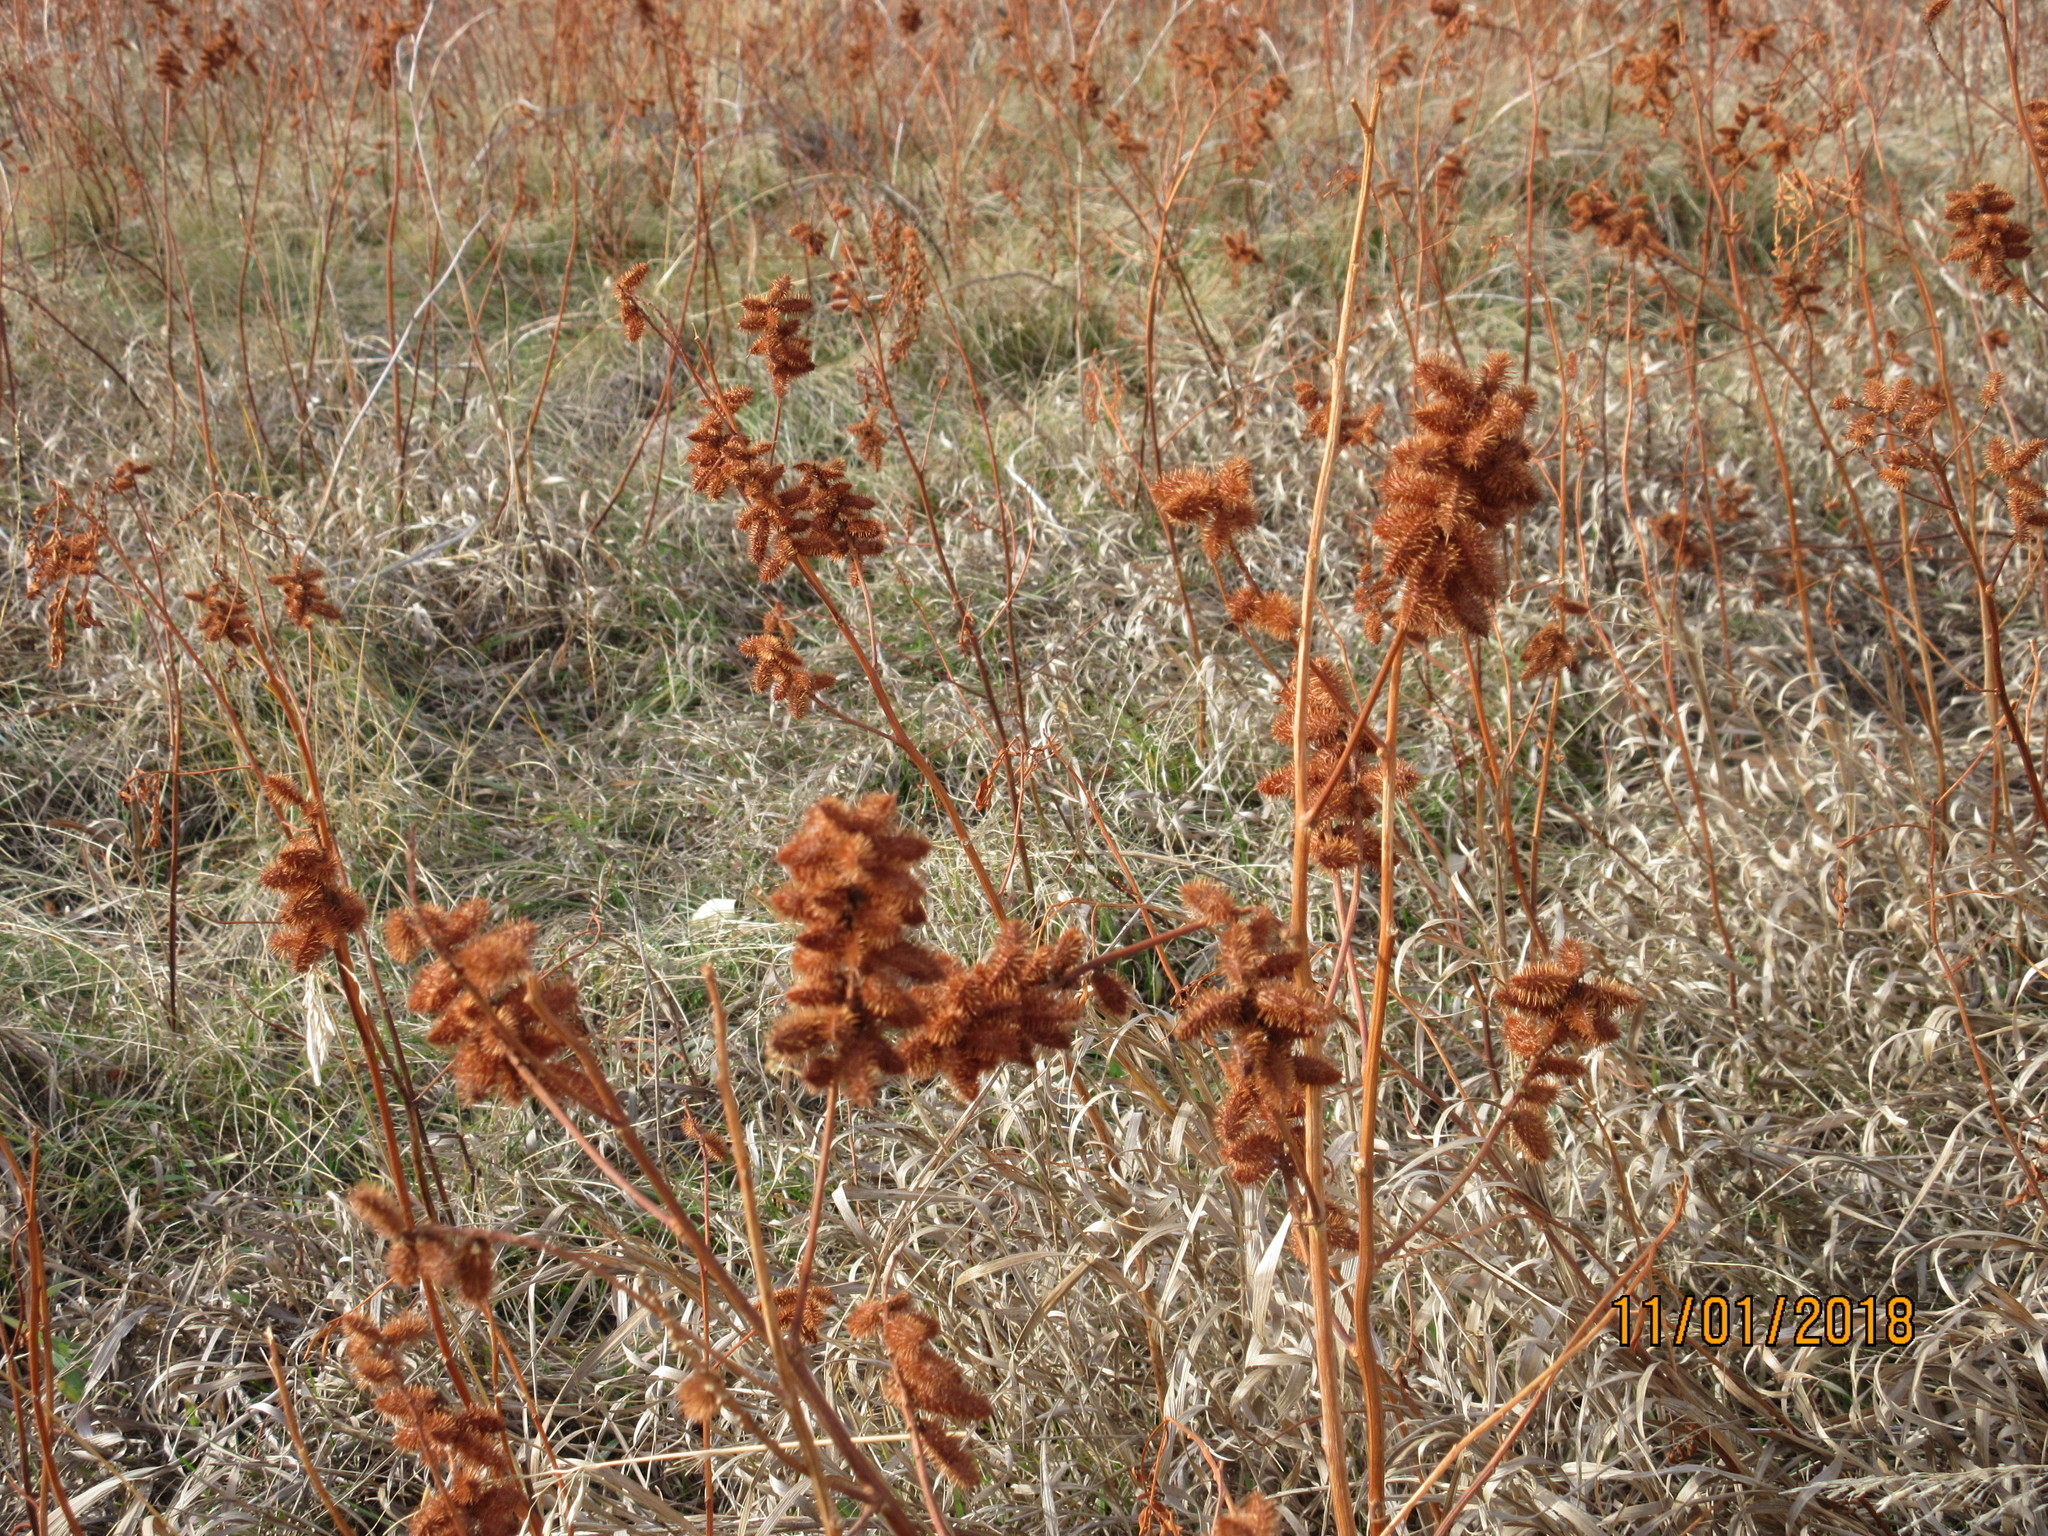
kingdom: Plantae
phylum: Tracheophyta
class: Magnoliopsida
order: Fabales
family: Fabaceae
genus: Glycyrrhiza
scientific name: Glycyrrhiza lepidota
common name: American liquorice
